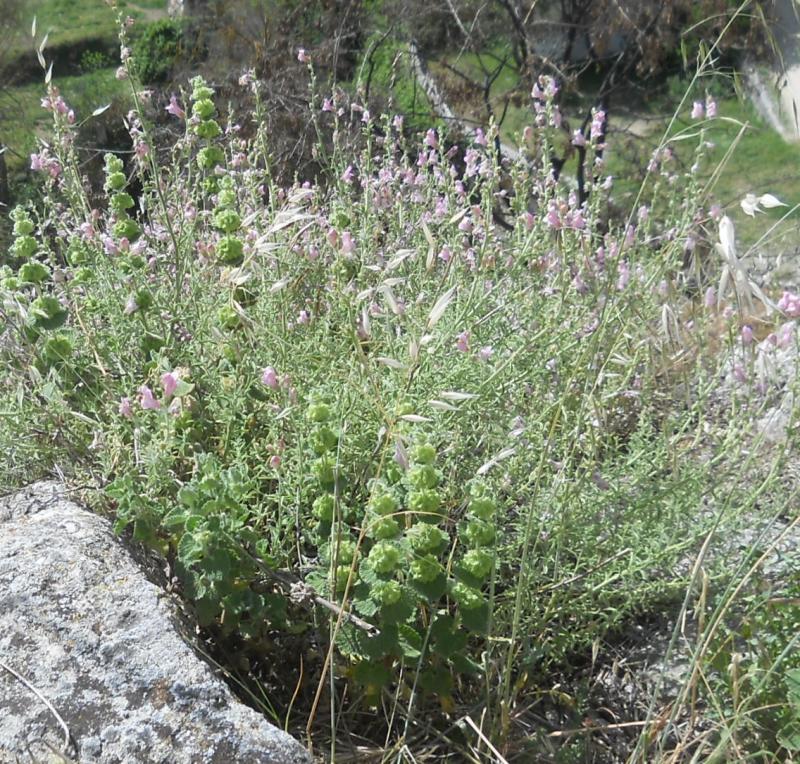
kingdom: Plantae
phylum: Tracheophyta
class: Magnoliopsida
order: Lamiales
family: Lamiaceae
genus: Pseudodictamnus
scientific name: Pseudodictamnus hirsutus
